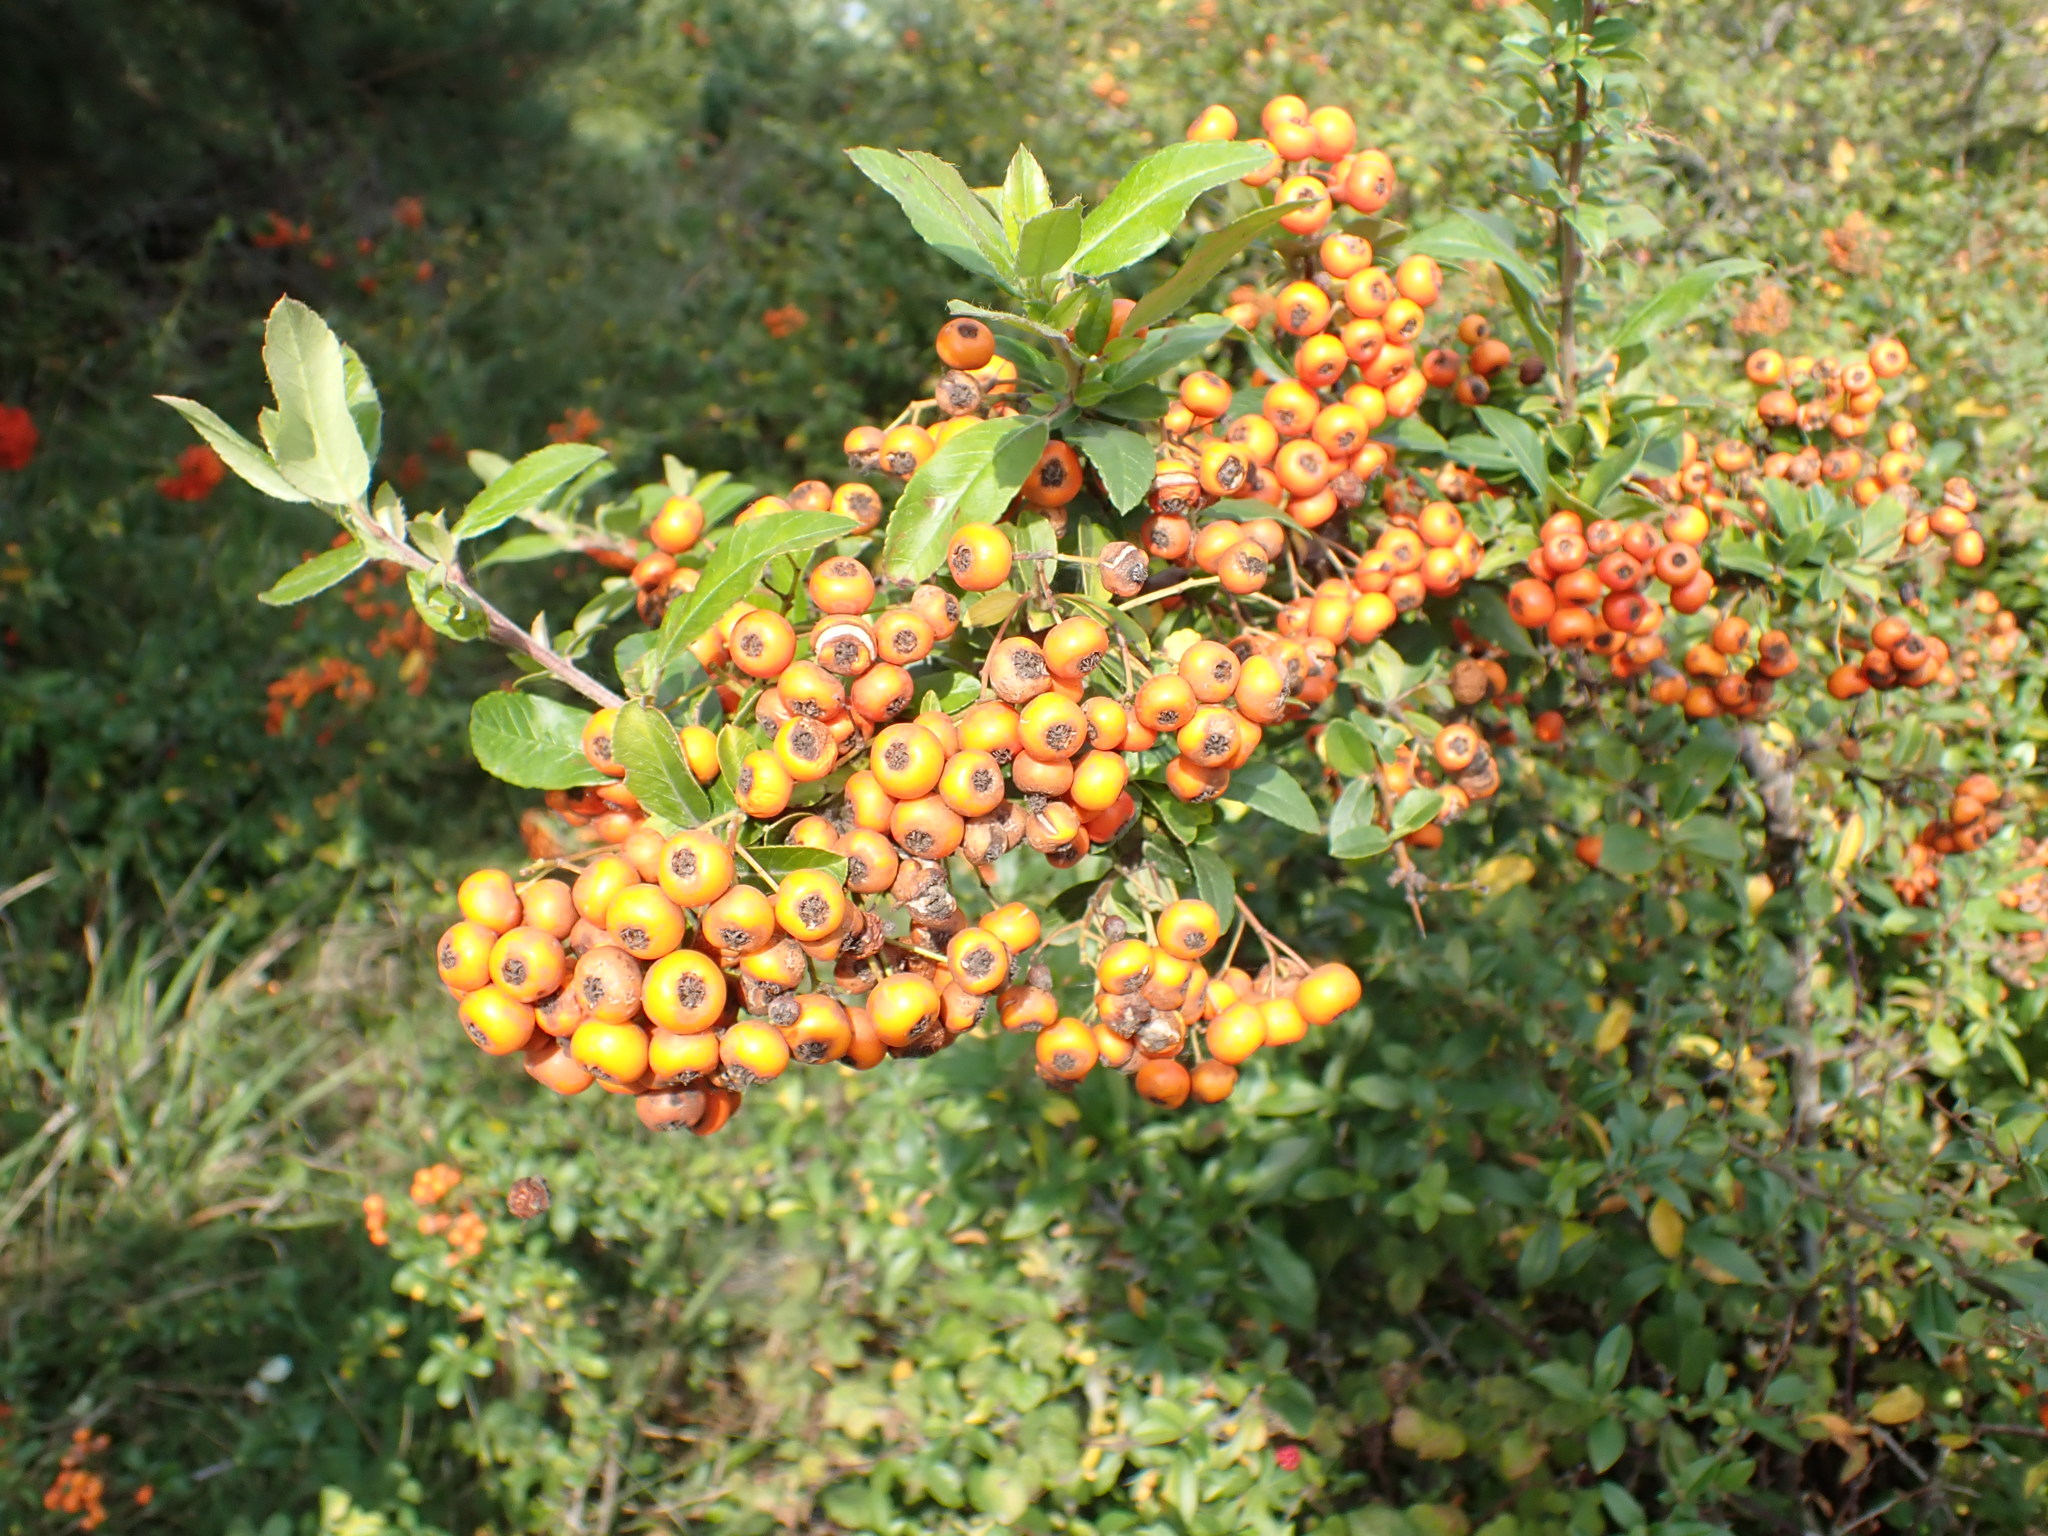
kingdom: Plantae
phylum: Tracheophyta
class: Magnoliopsida
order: Rosales
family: Rosaceae
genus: Pyracantha
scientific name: Pyracantha coccinea
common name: Firethorn
